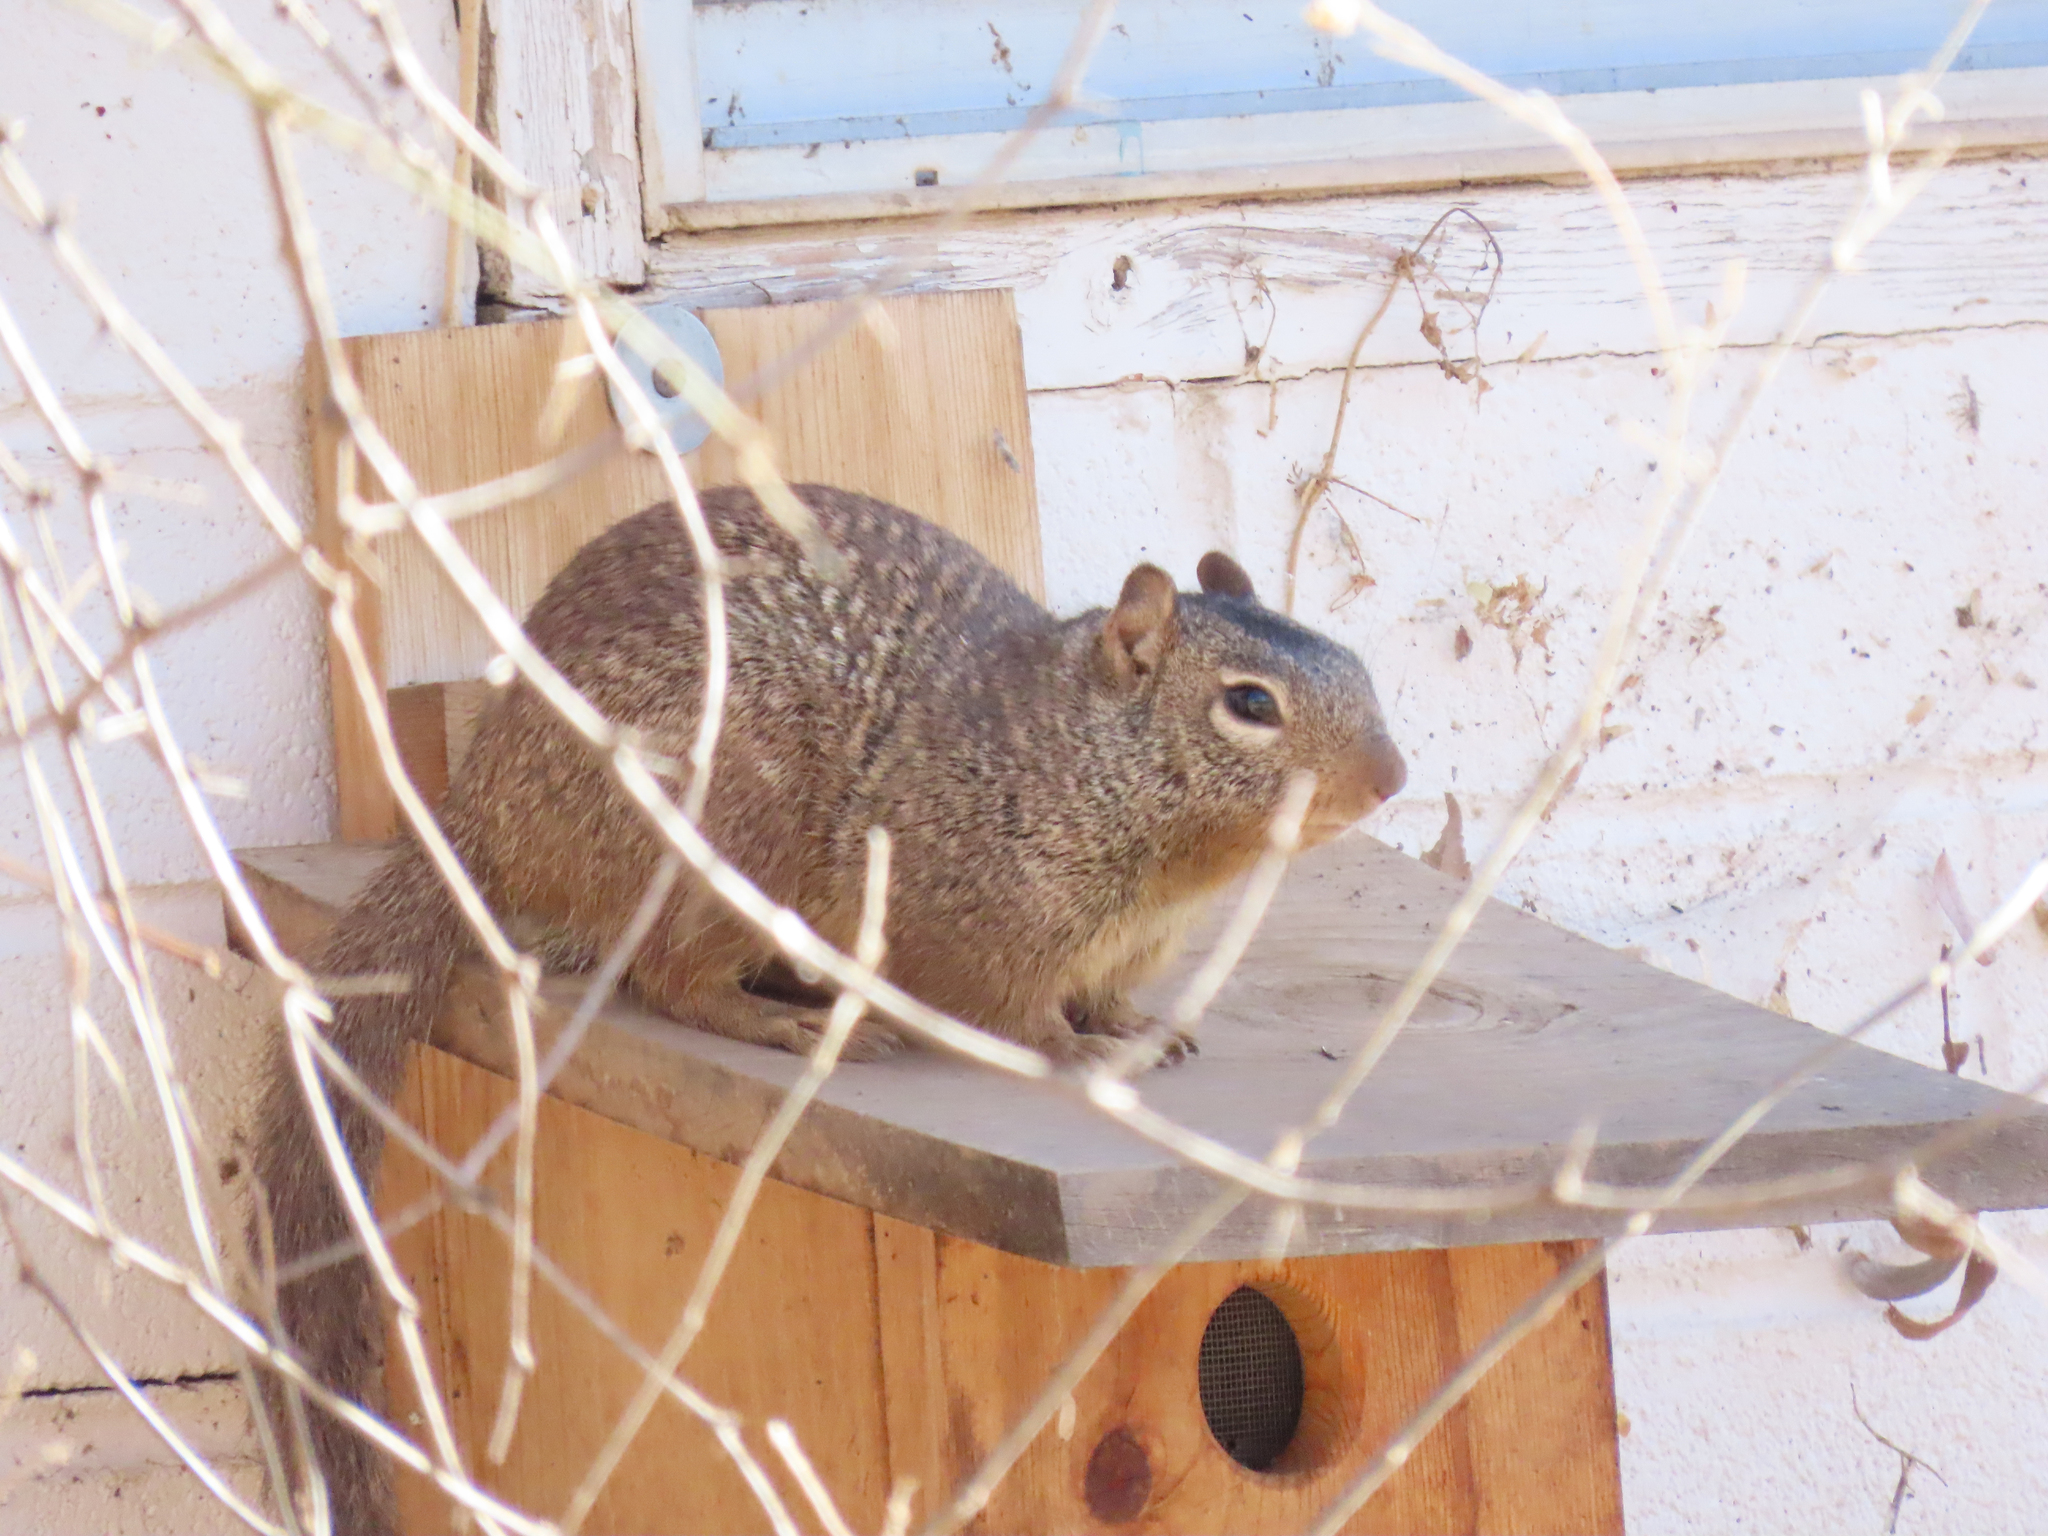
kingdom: Animalia
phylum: Chordata
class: Mammalia
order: Rodentia
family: Sciuridae
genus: Otospermophilus
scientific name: Otospermophilus variegatus
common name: Rock squirrel
